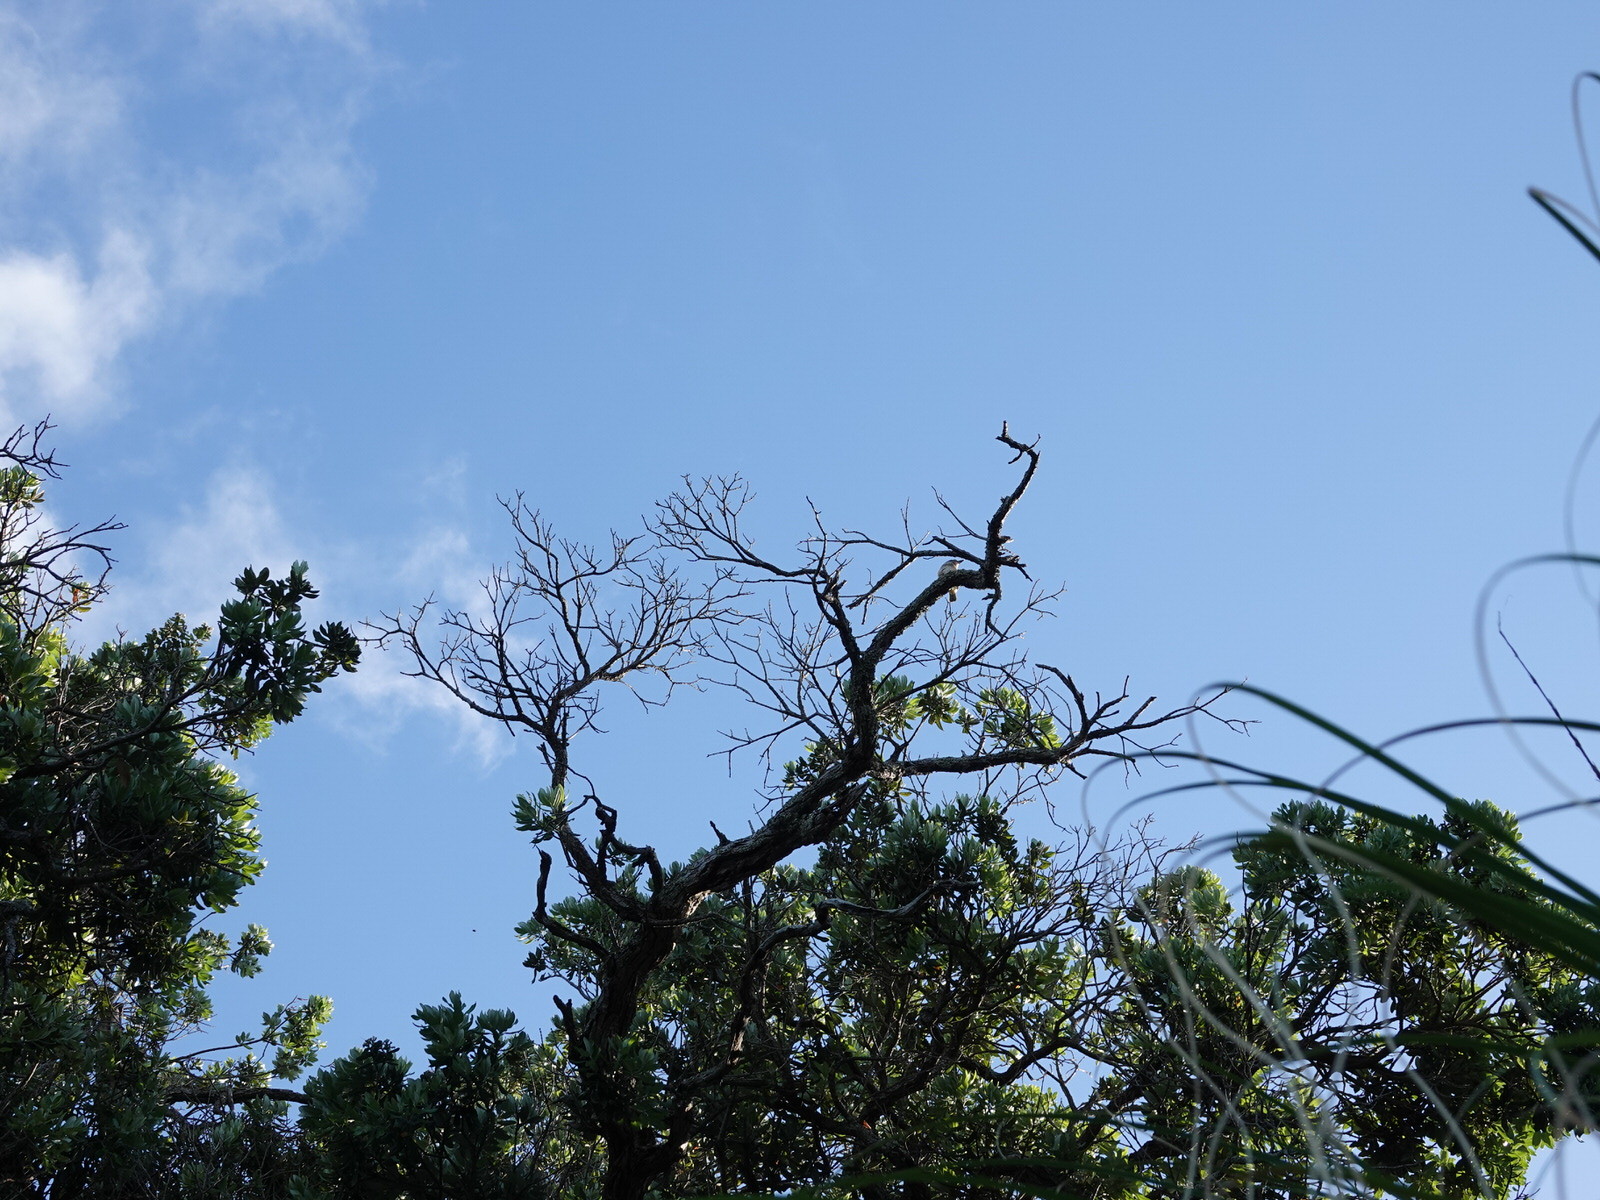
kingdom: Animalia
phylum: Chordata
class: Aves
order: Coraciiformes
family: Alcedinidae
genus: Todiramphus
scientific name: Todiramphus sanctus
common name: Sacred kingfisher
